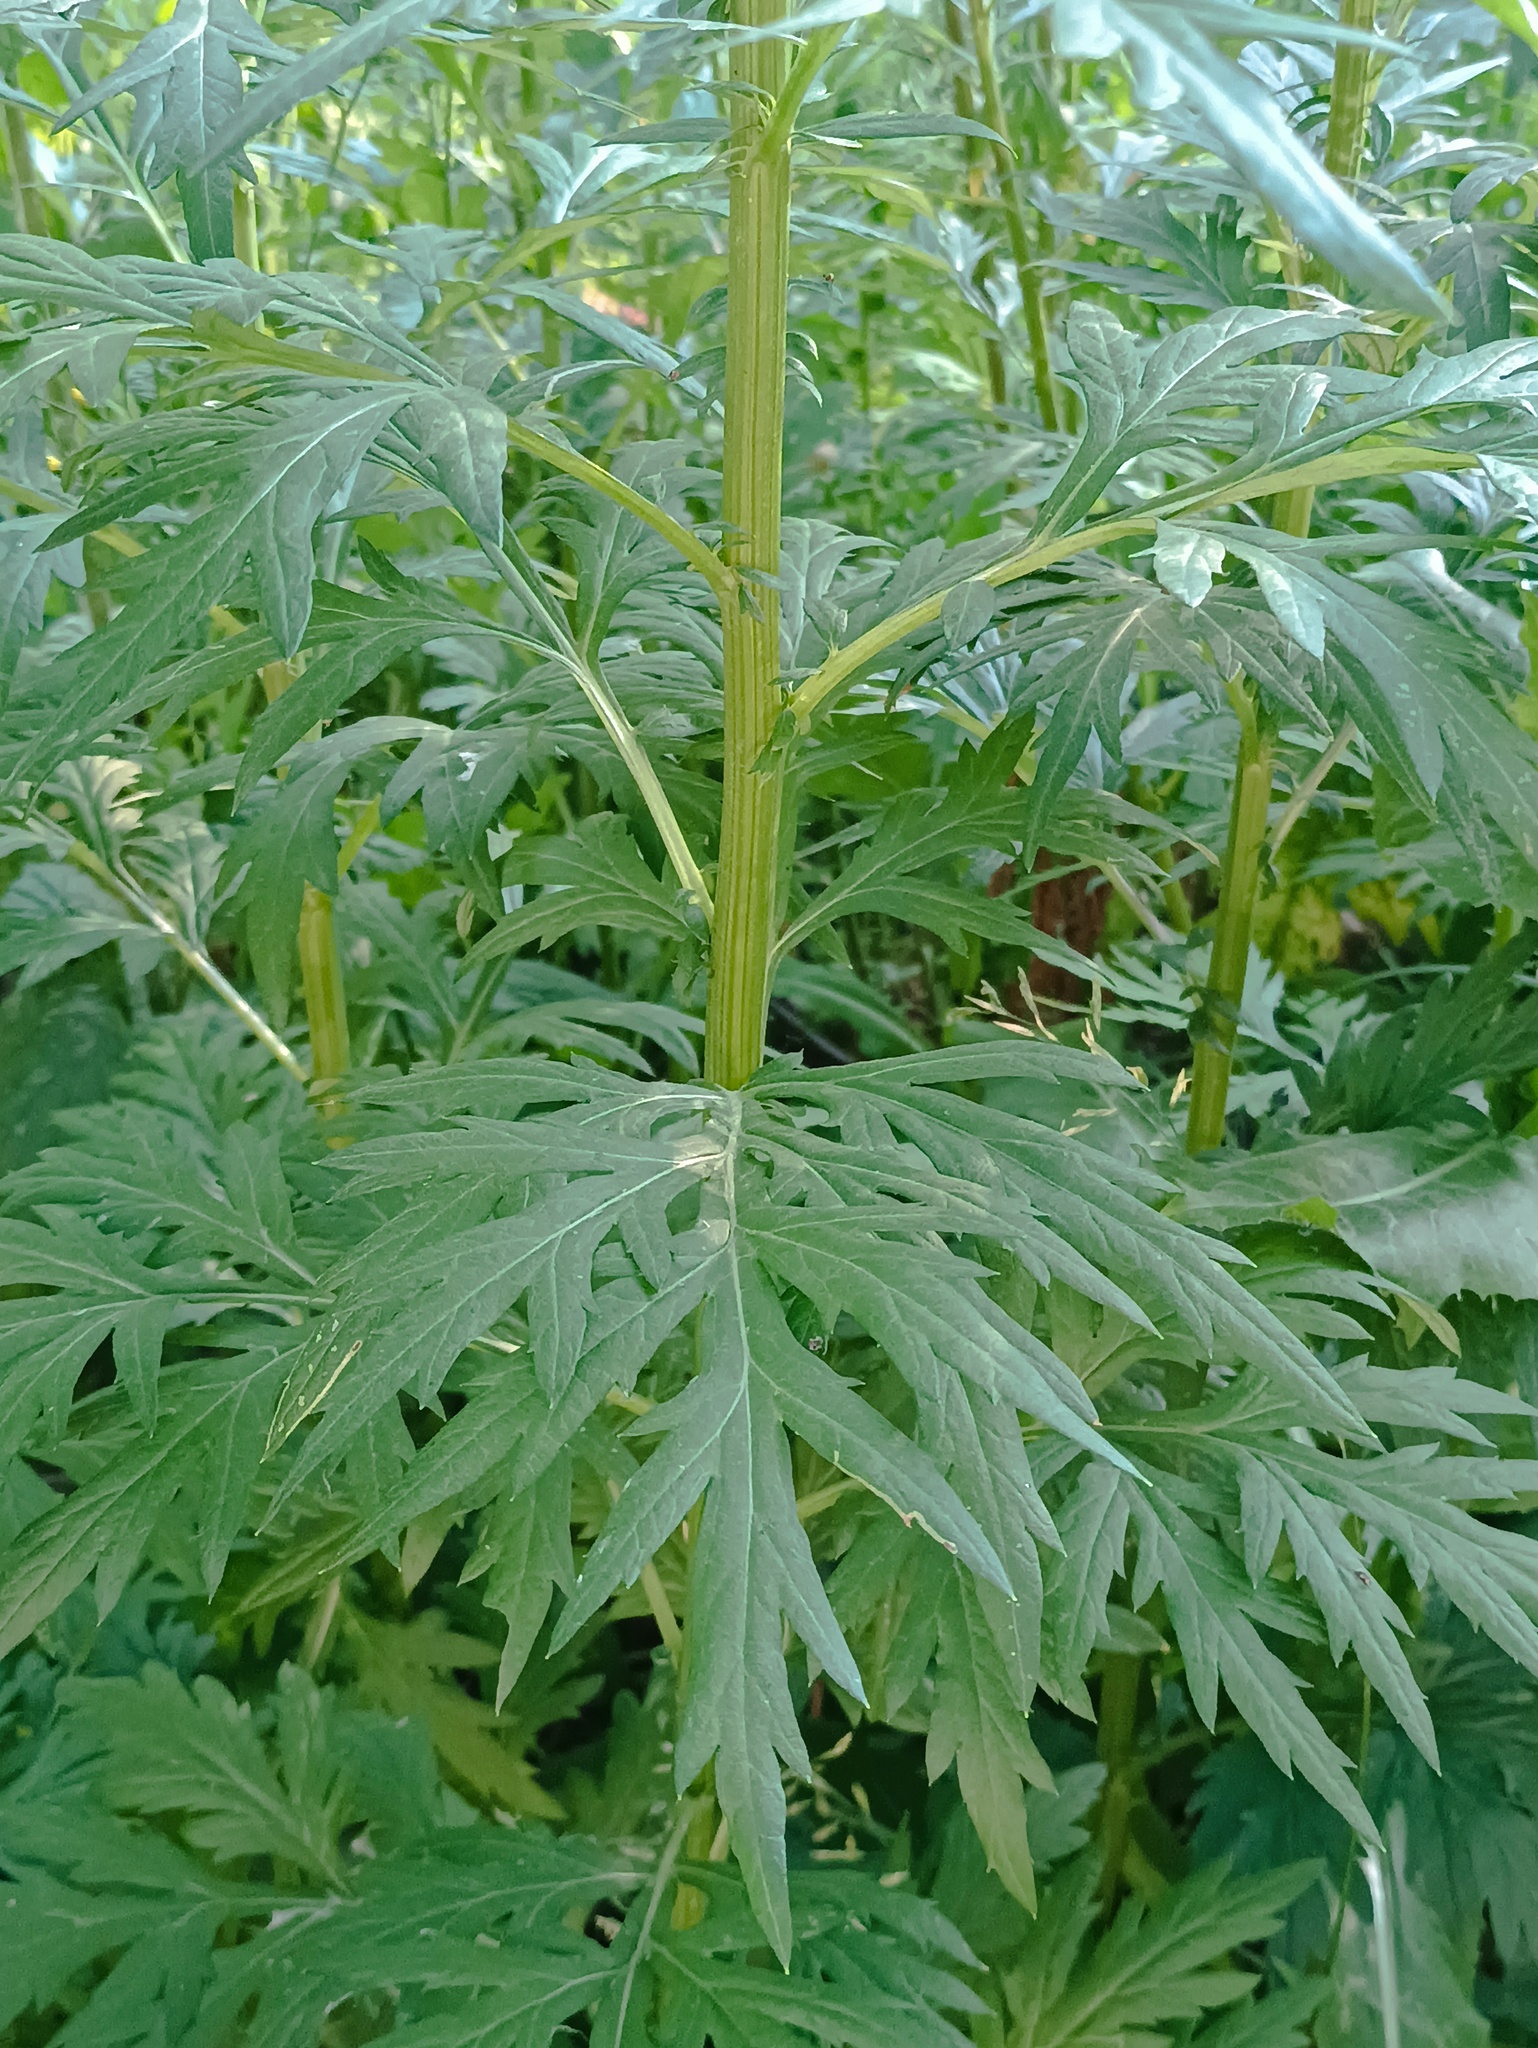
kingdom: Plantae
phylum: Tracheophyta
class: Magnoliopsida
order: Asterales
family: Asteraceae
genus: Artemisia
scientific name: Artemisia vulgaris
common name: Mugwort
